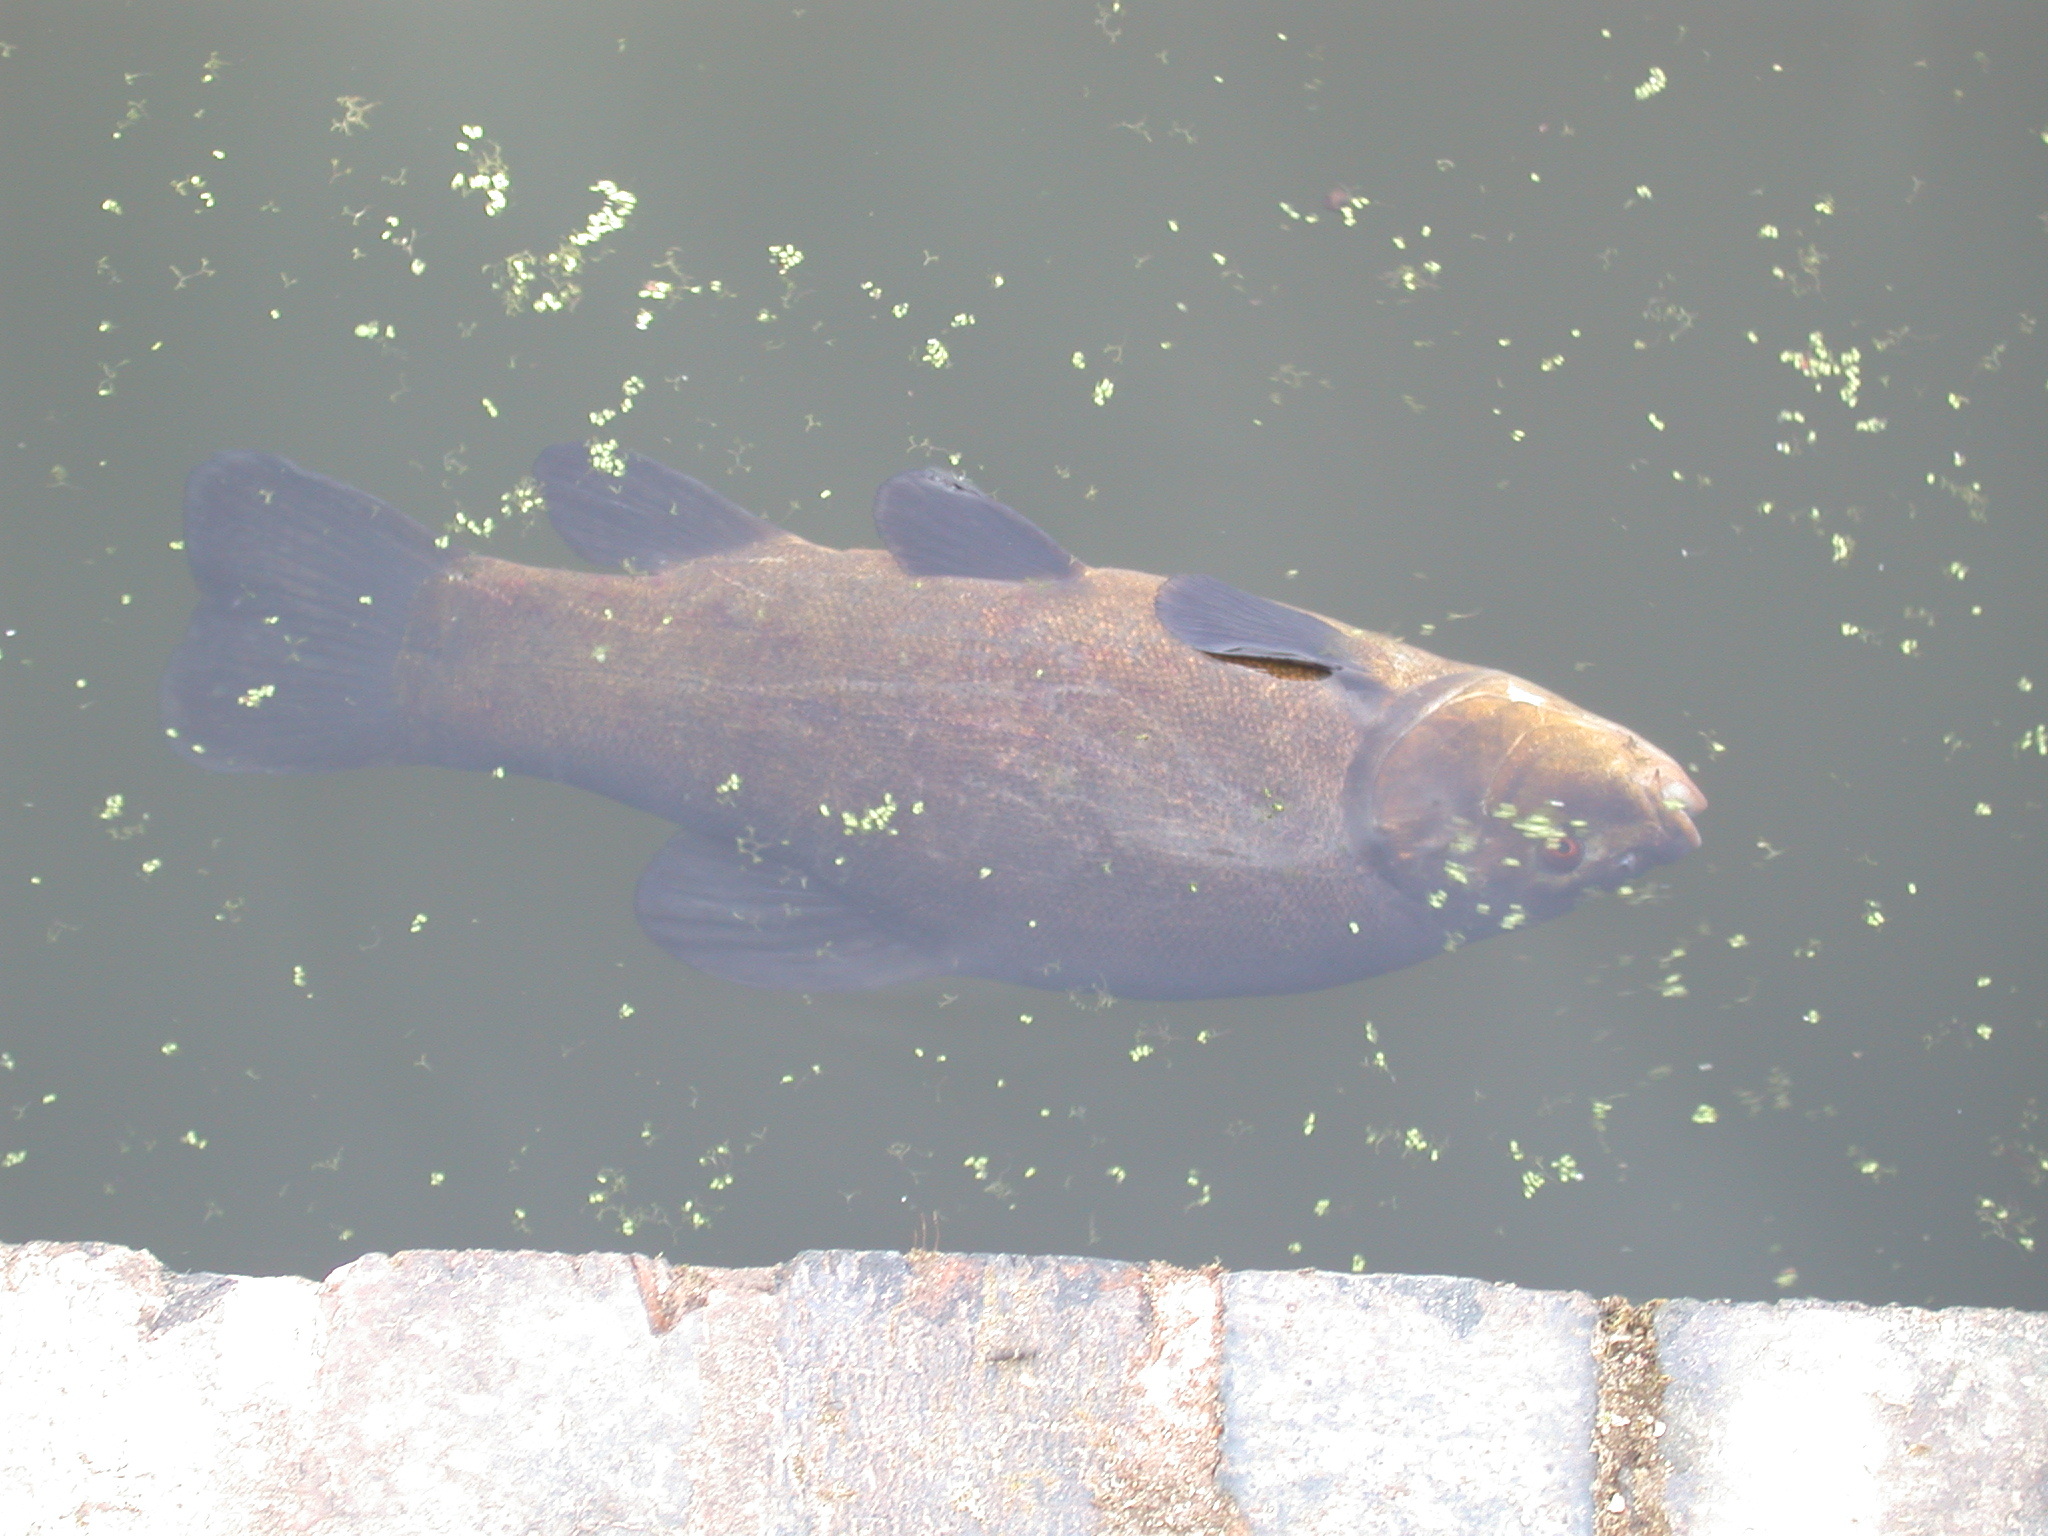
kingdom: Animalia
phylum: Chordata
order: Cypriniformes
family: Cyprinidae
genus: Tinca
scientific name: Tinca tinca
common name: Tench
